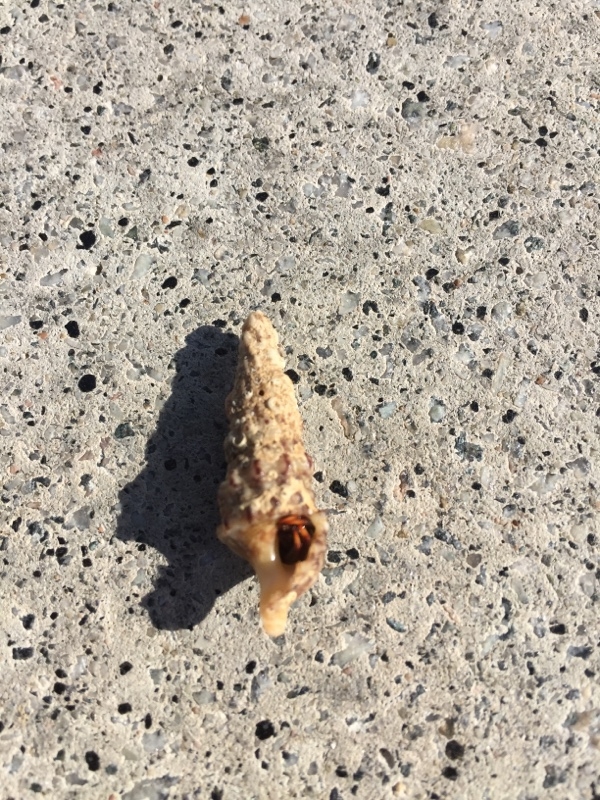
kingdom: Animalia
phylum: Arthropoda
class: Malacostraca
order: Decapoda
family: Diogenidae
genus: Clibanarius
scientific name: Clibanarius aequabilis
